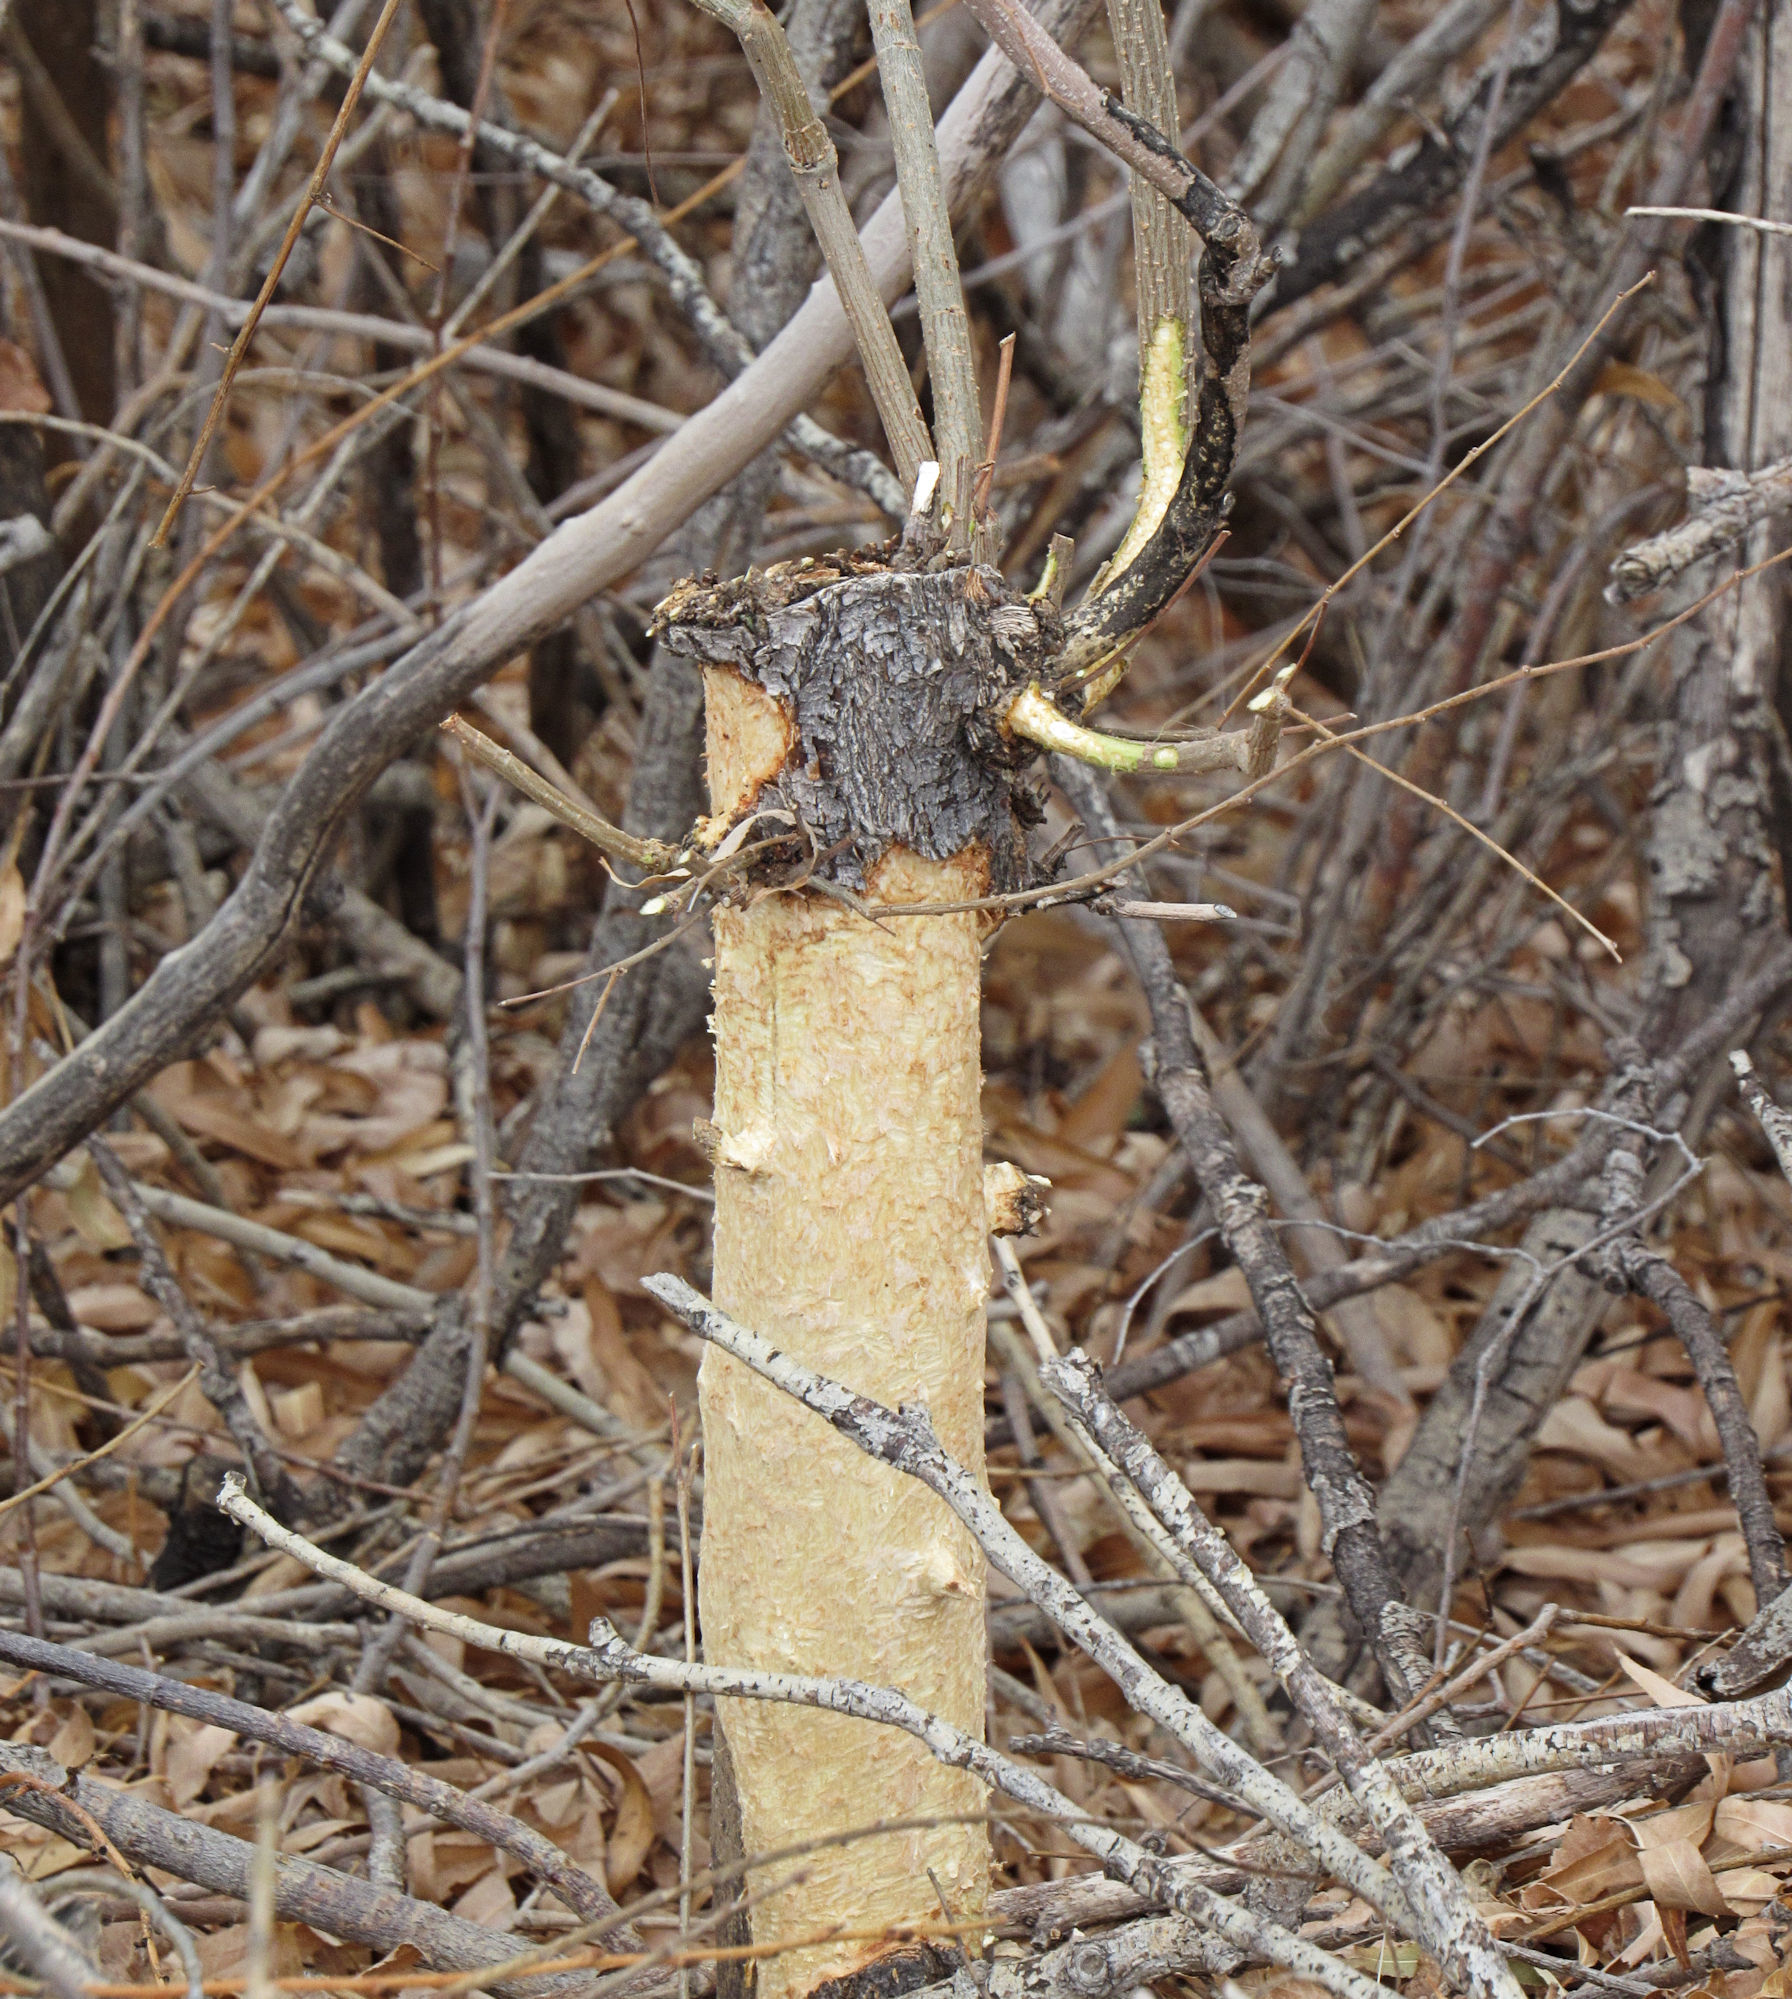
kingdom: Animalia
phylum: Chordata
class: Mammalia
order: Rodentia
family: Castoridae
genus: Castor
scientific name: Castor canadensis
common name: American beaver
